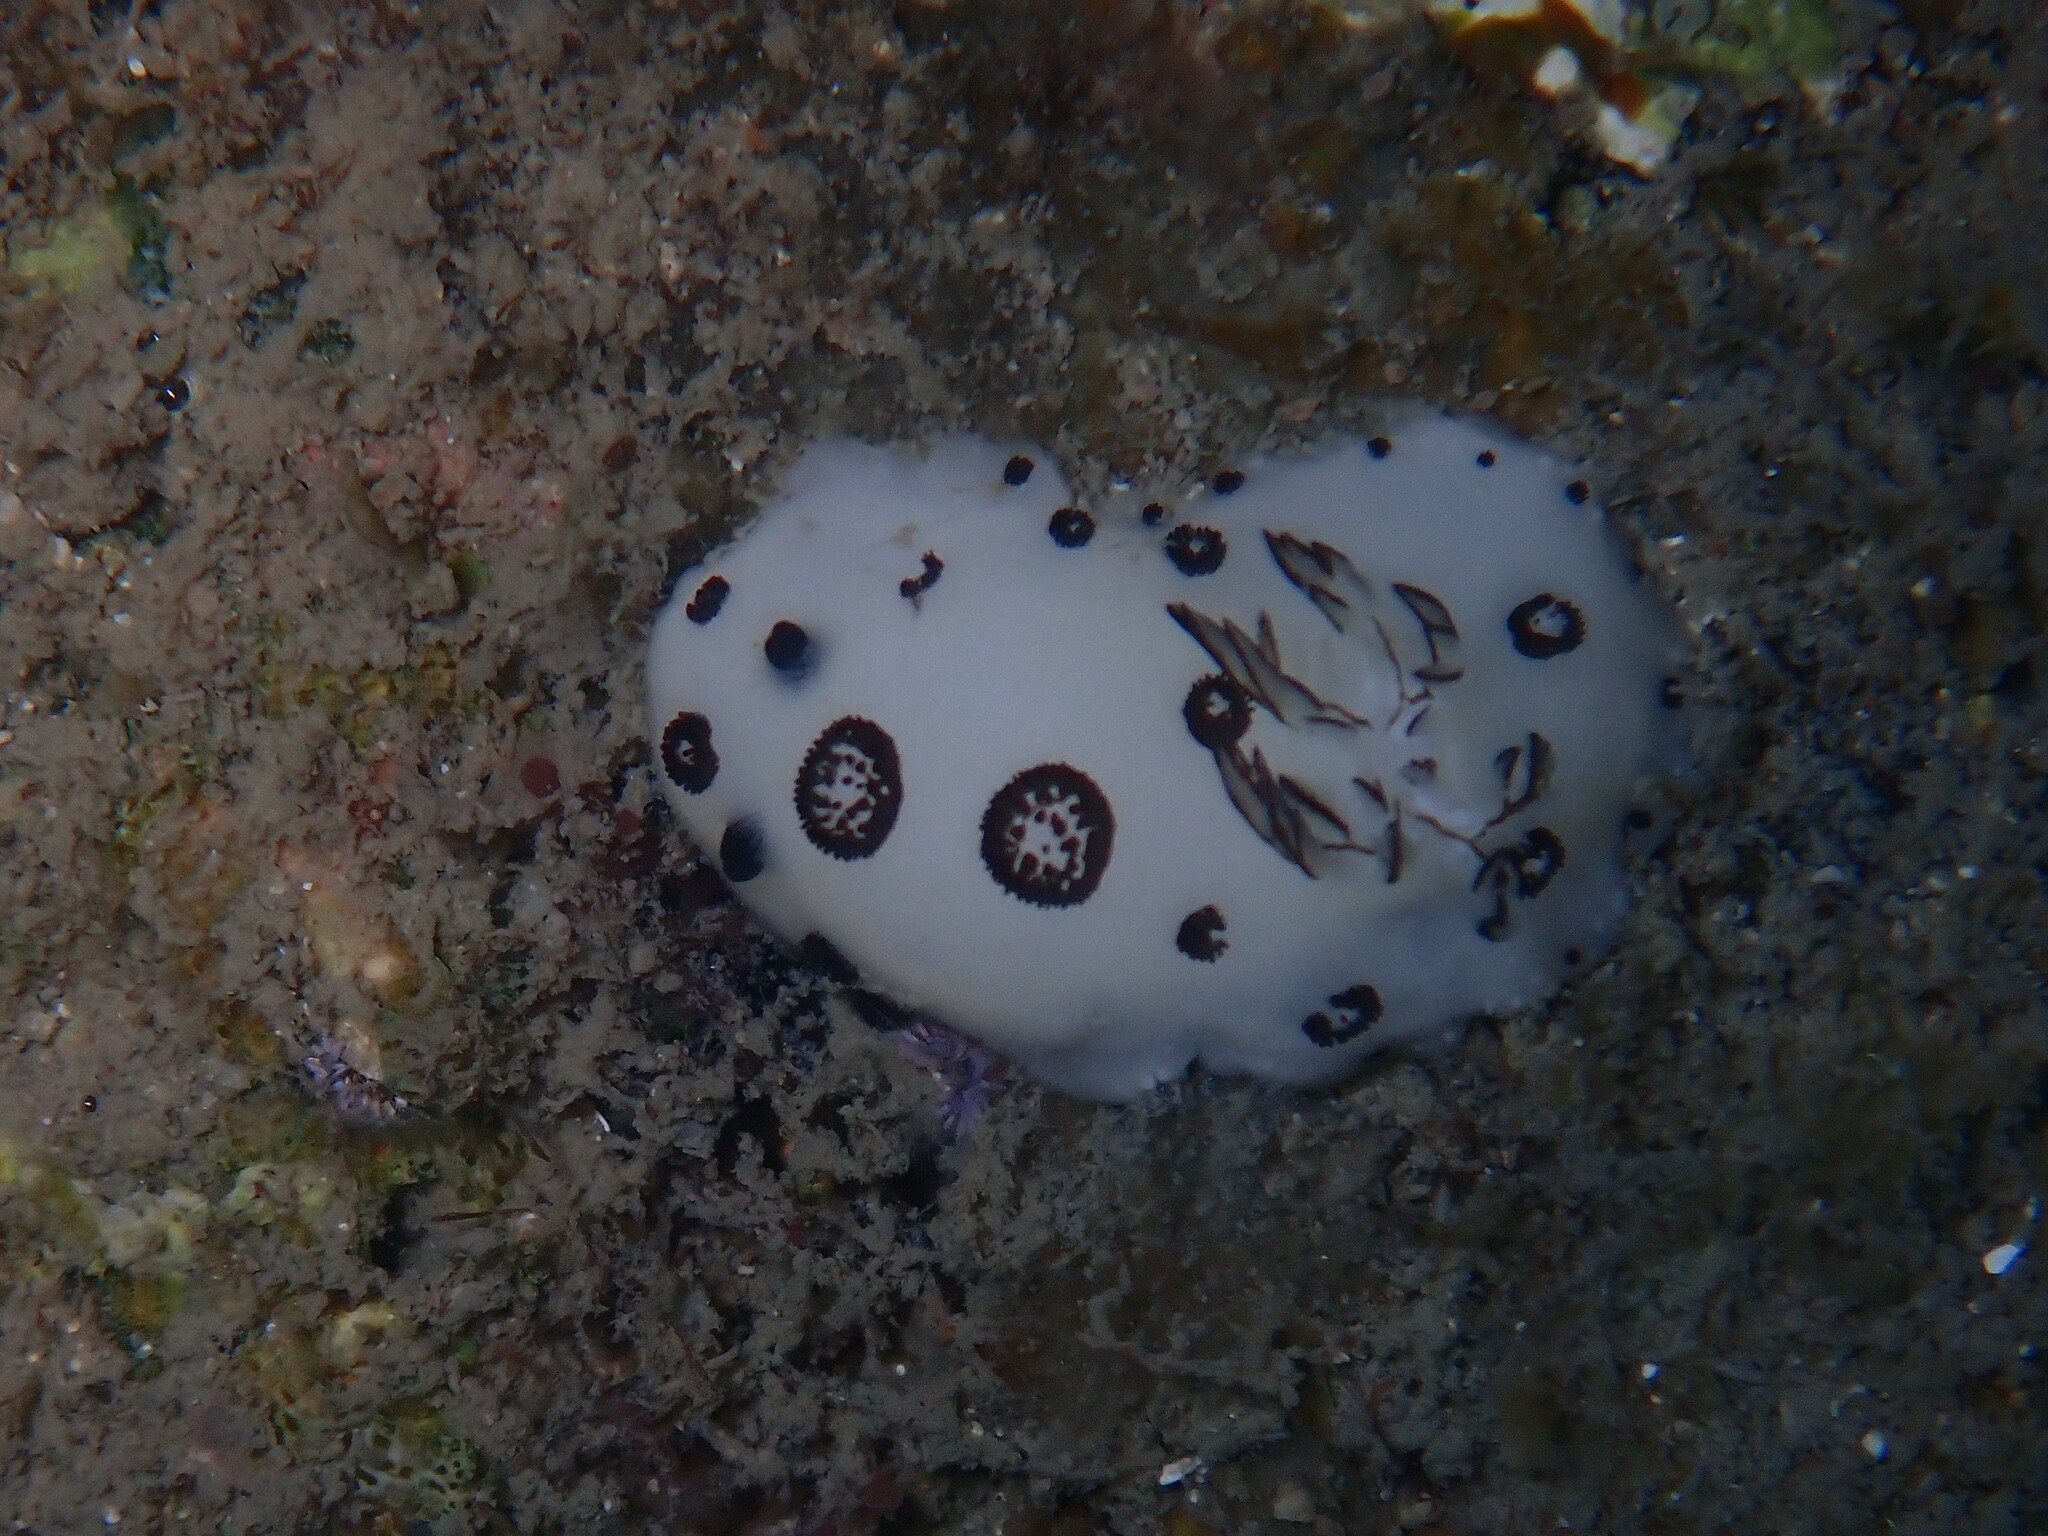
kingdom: Animalia
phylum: Mollusca
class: Gastropoda
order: Nudibranchia
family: Discodorididae
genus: Jorunna
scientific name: Jorunna funebris
